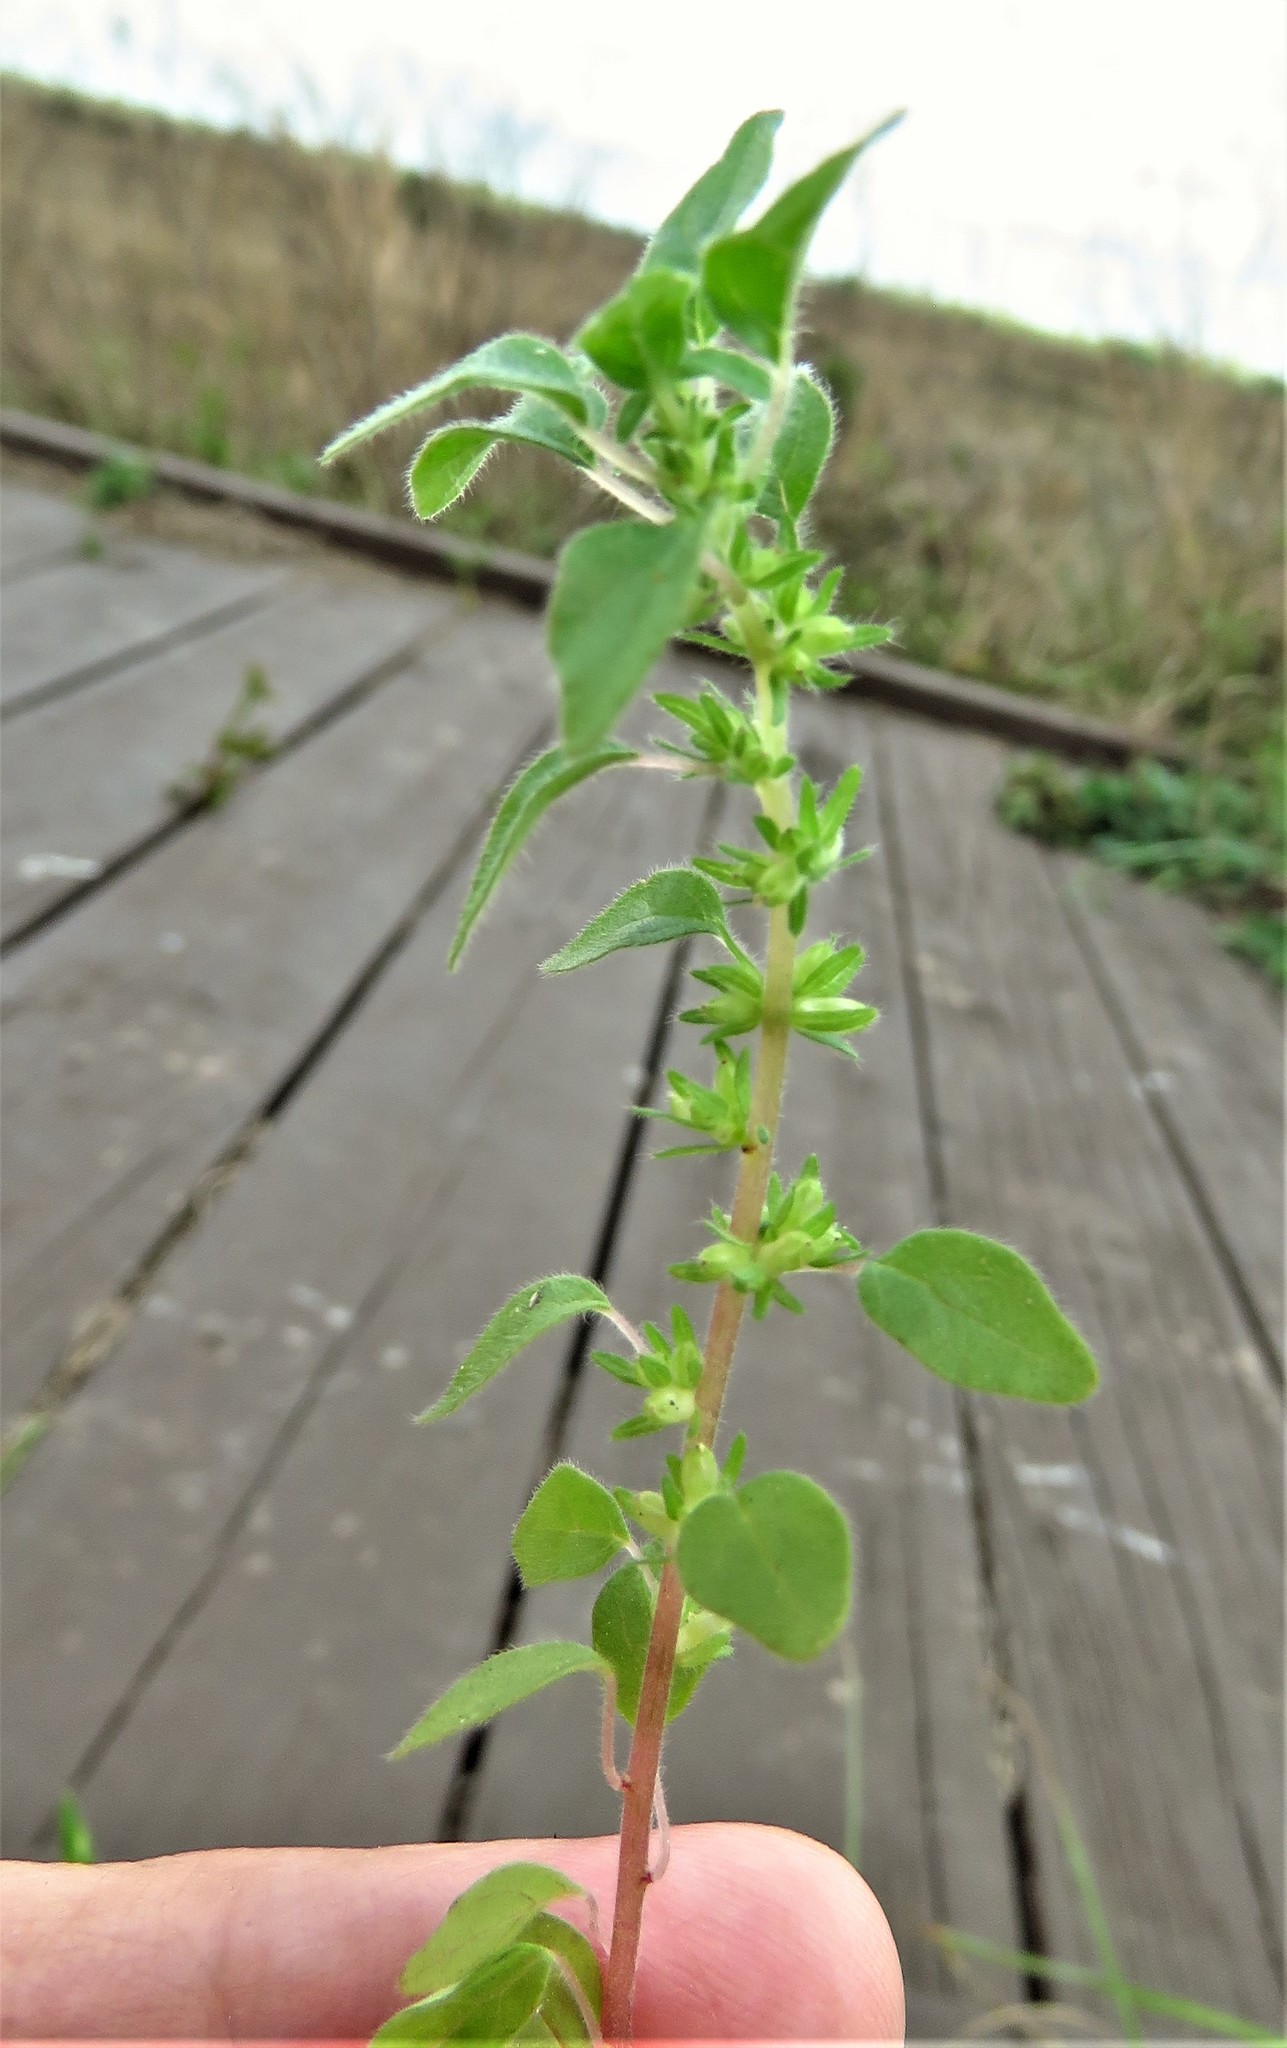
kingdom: Plantae
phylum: Tracheophyta
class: Magnoliopsida
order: Rosales
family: Urticaceae
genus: Parietaria
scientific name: Parietaria pensylvanica
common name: Pennsylvania pellitory
